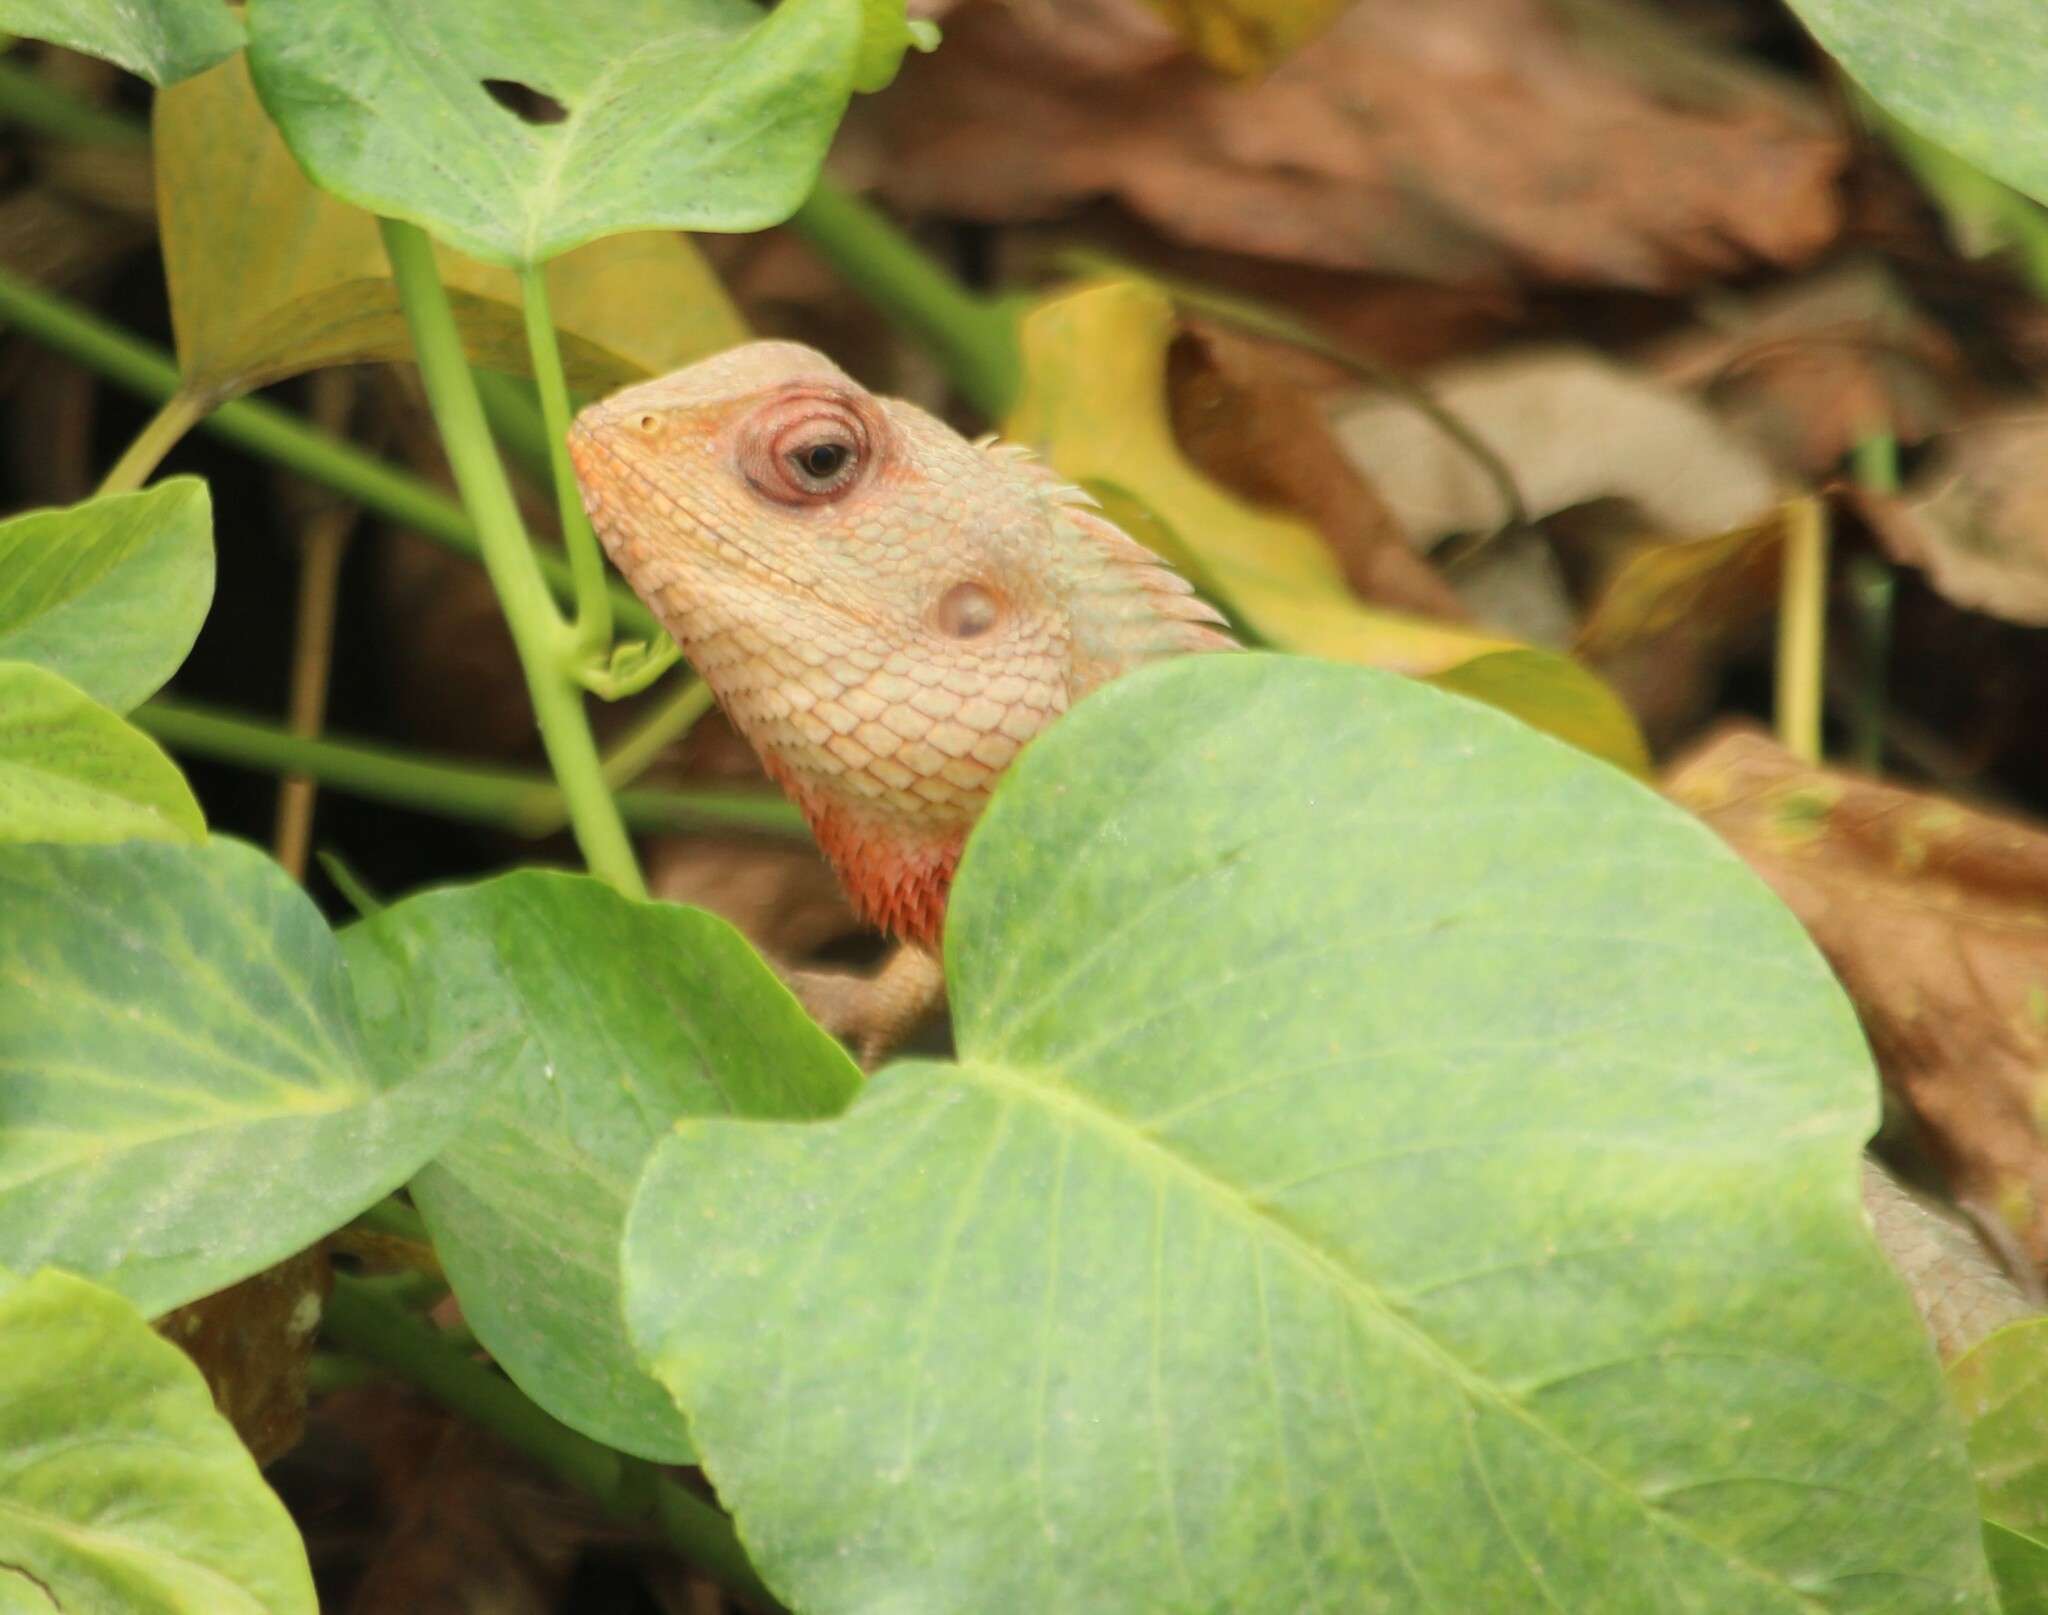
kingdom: Animalia
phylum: Chordata
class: Squamata
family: Agamidae
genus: Calotes
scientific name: Calotes versicolor
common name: Oriental garden lizard
